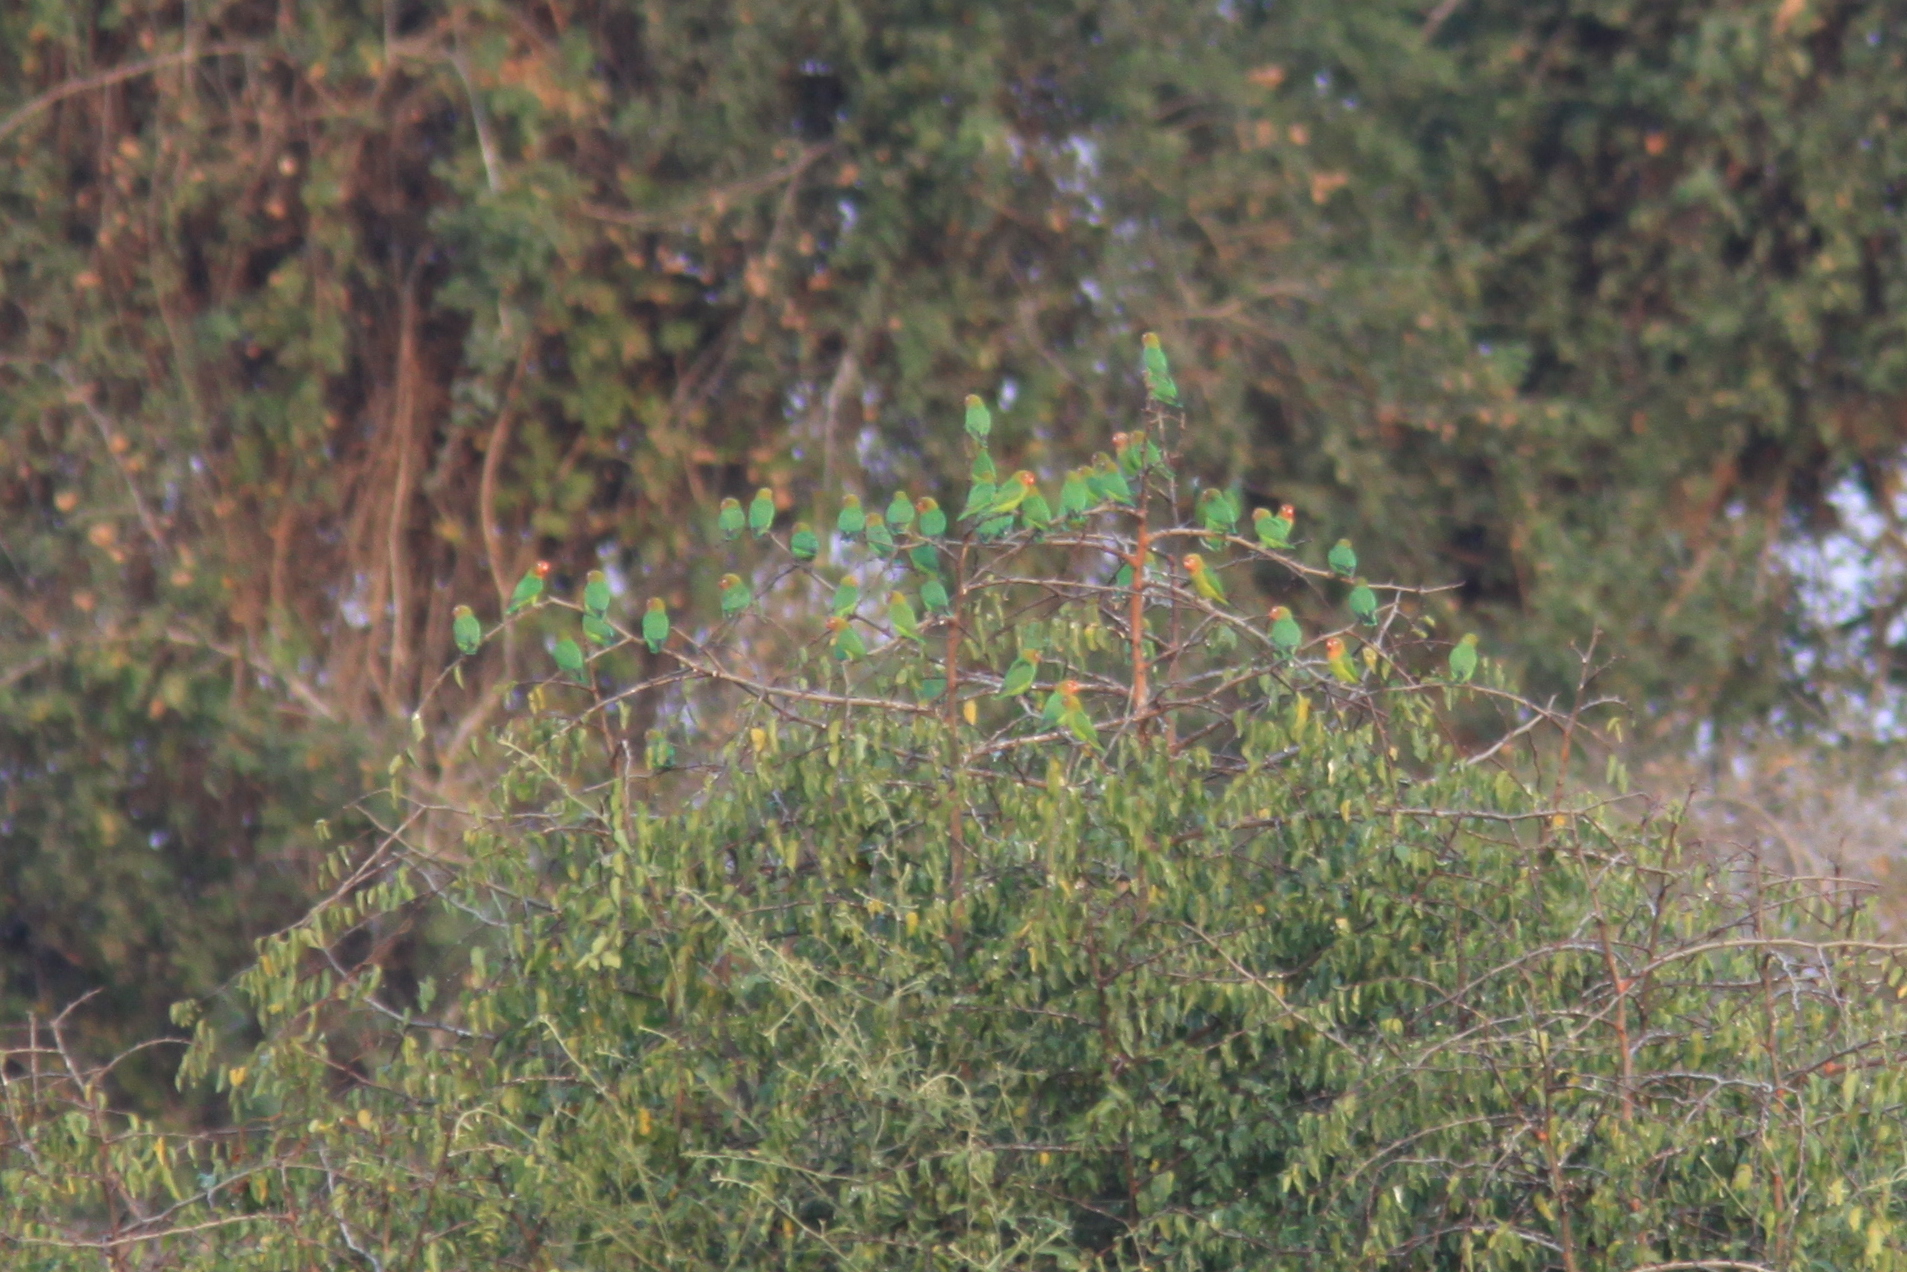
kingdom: Animalia
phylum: Chordata
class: Aves
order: Psittaciformes
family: Psittacidae
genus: Agapornis
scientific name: Agapornis lilianae
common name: Lilian's lovebird
